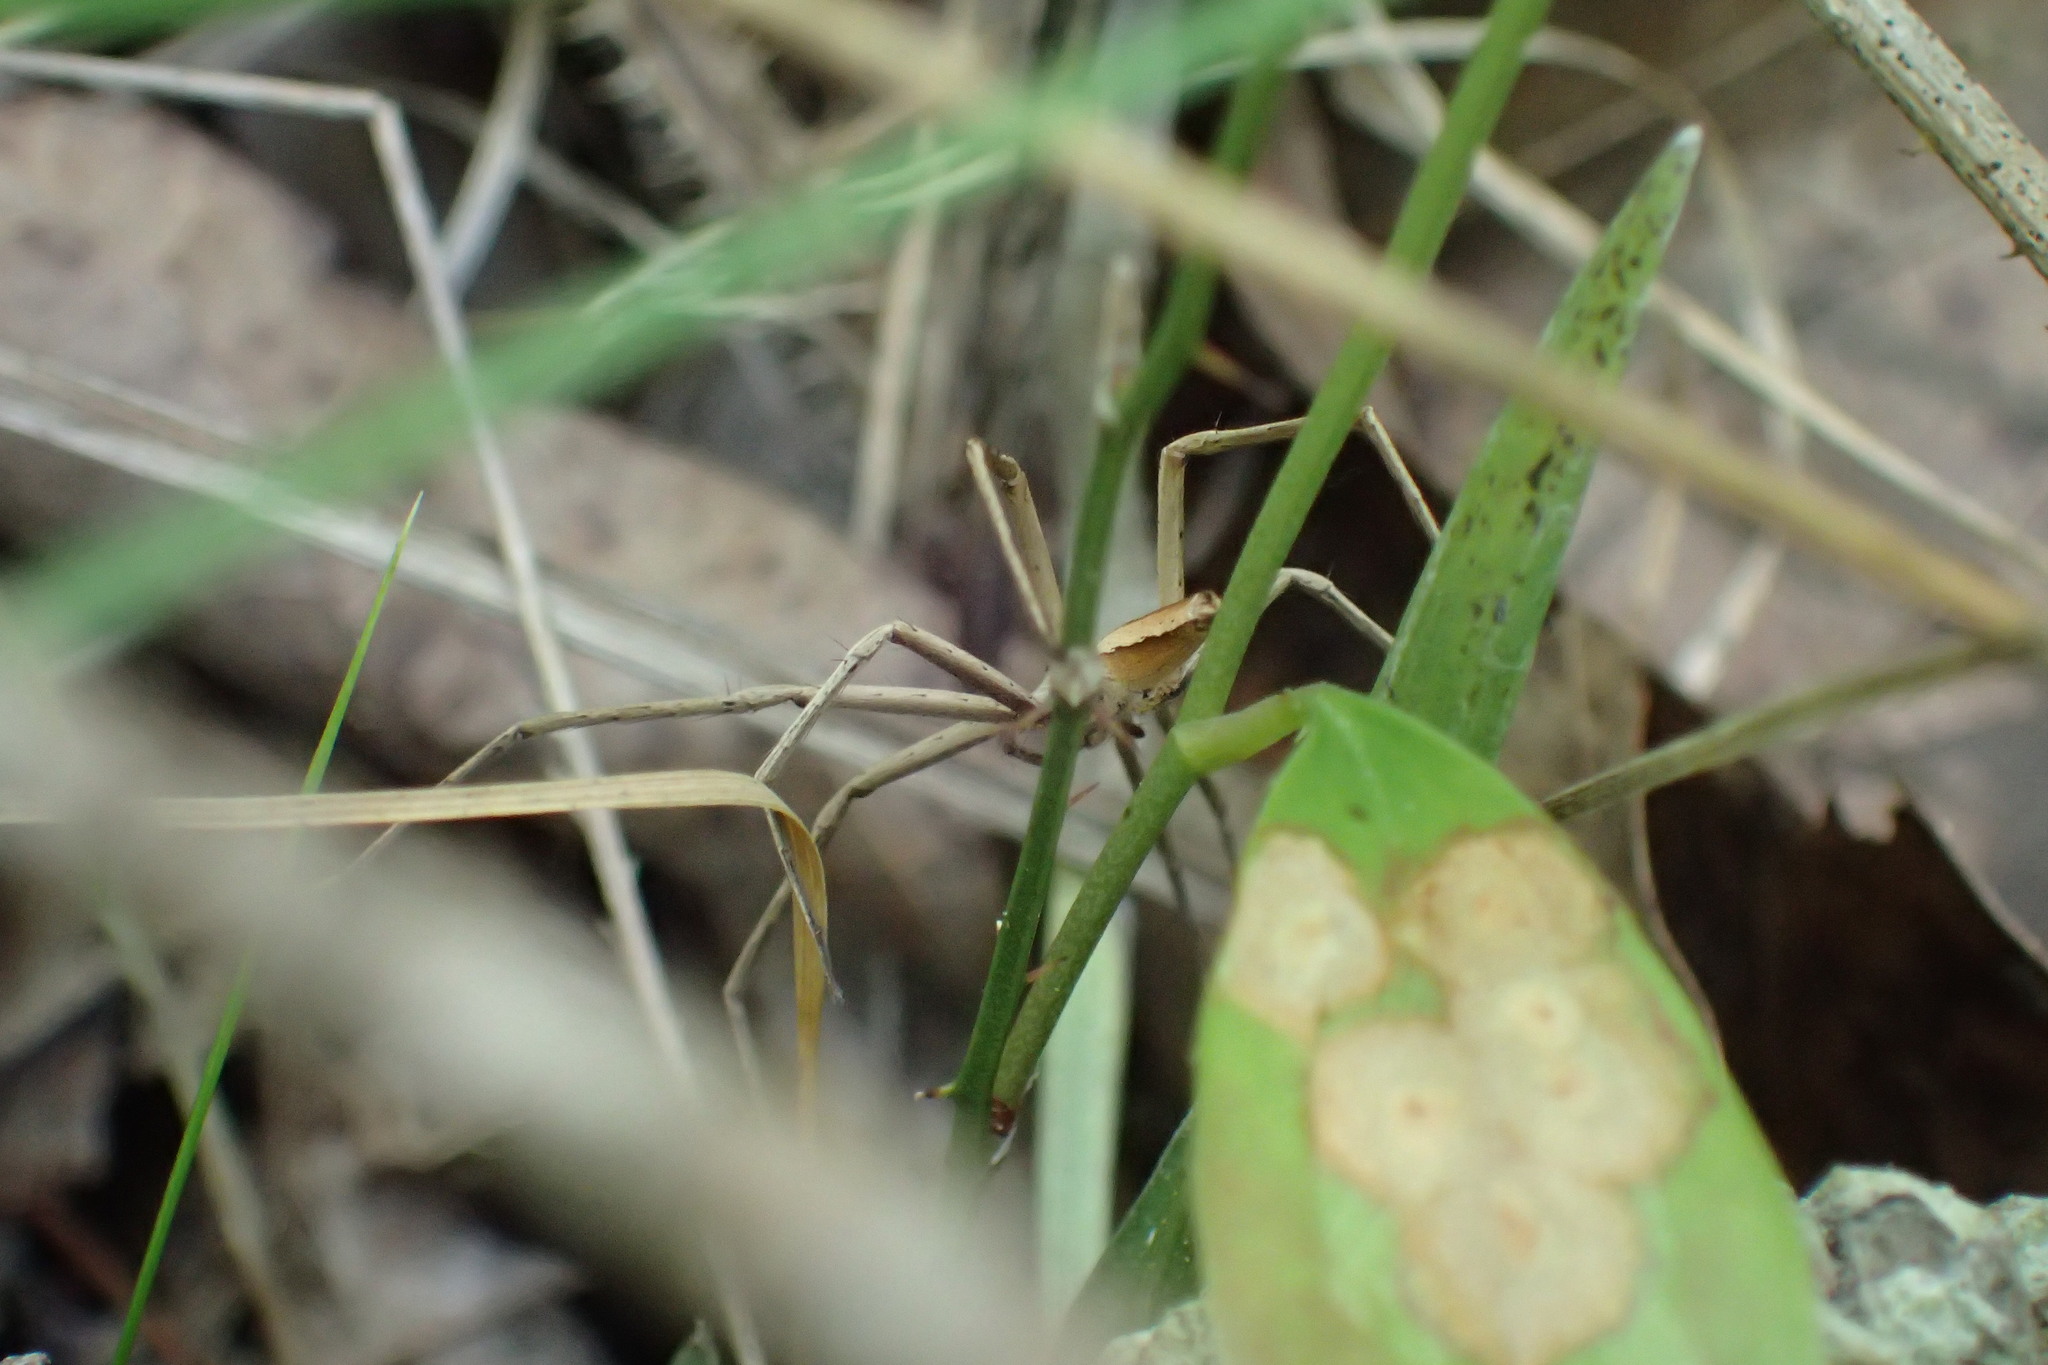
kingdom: Animalia
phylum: Arthropoda
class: Arachnida
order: Araneae
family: Pisauridae
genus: Pisaurina
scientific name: Pisaurina dubia
